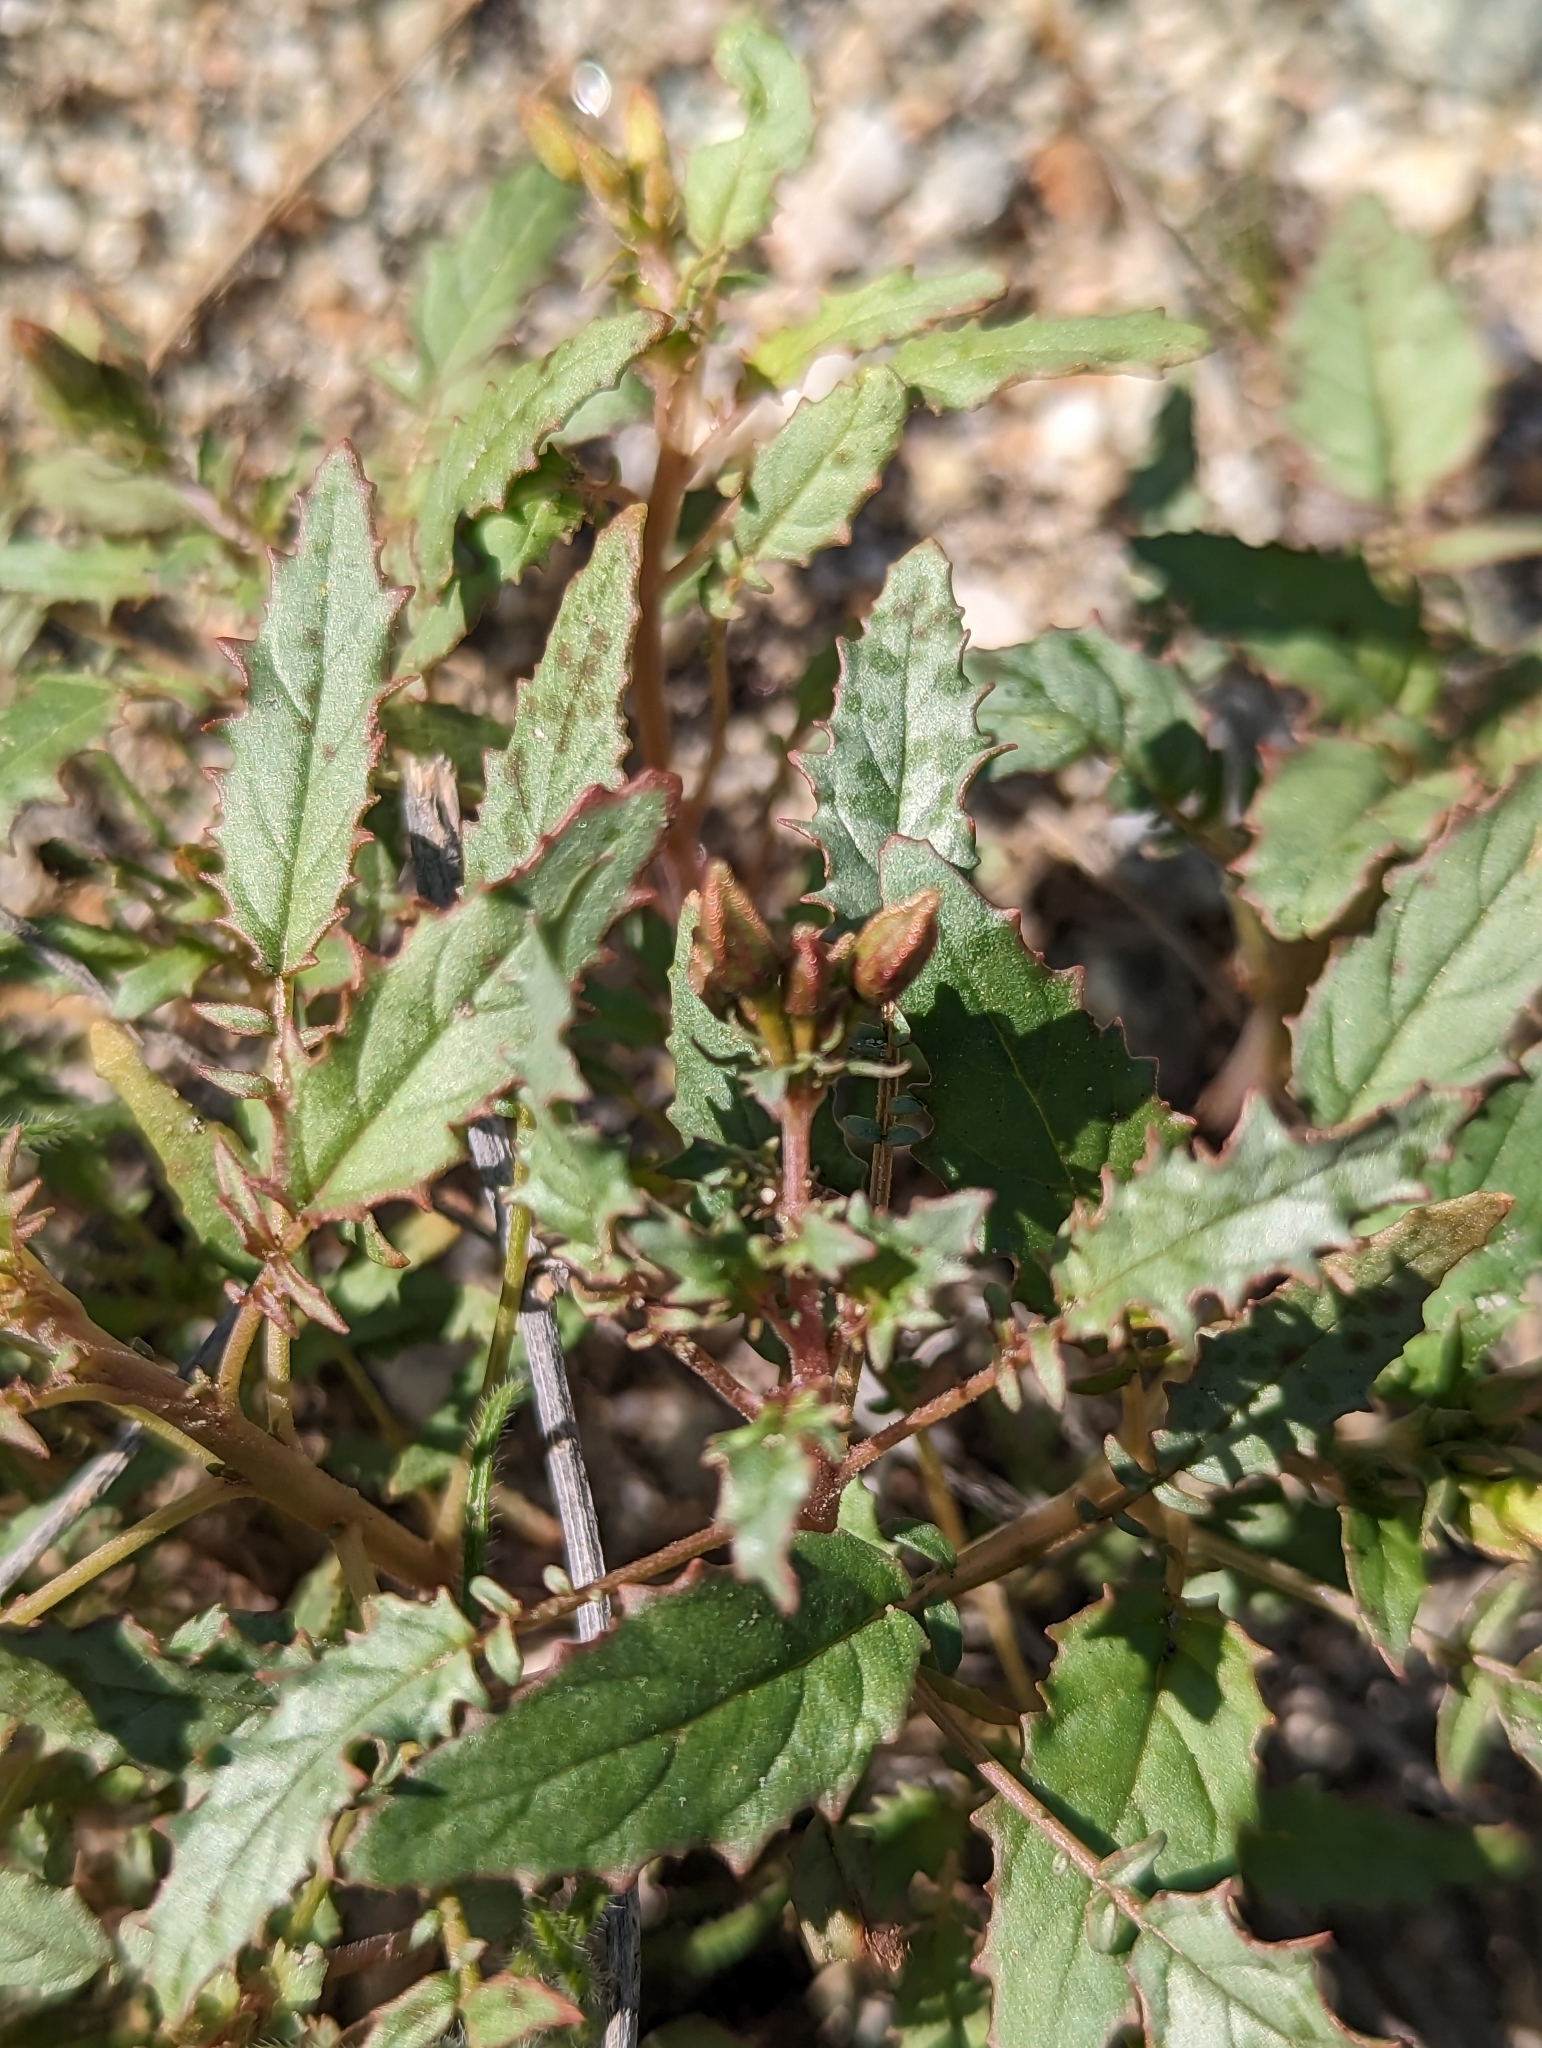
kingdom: Plantae
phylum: Tracheophyta
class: Magnoliopsida
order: Myrtales
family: Onagraceae
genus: Chylismia
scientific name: Chylismia claviformis
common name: Browneyes
